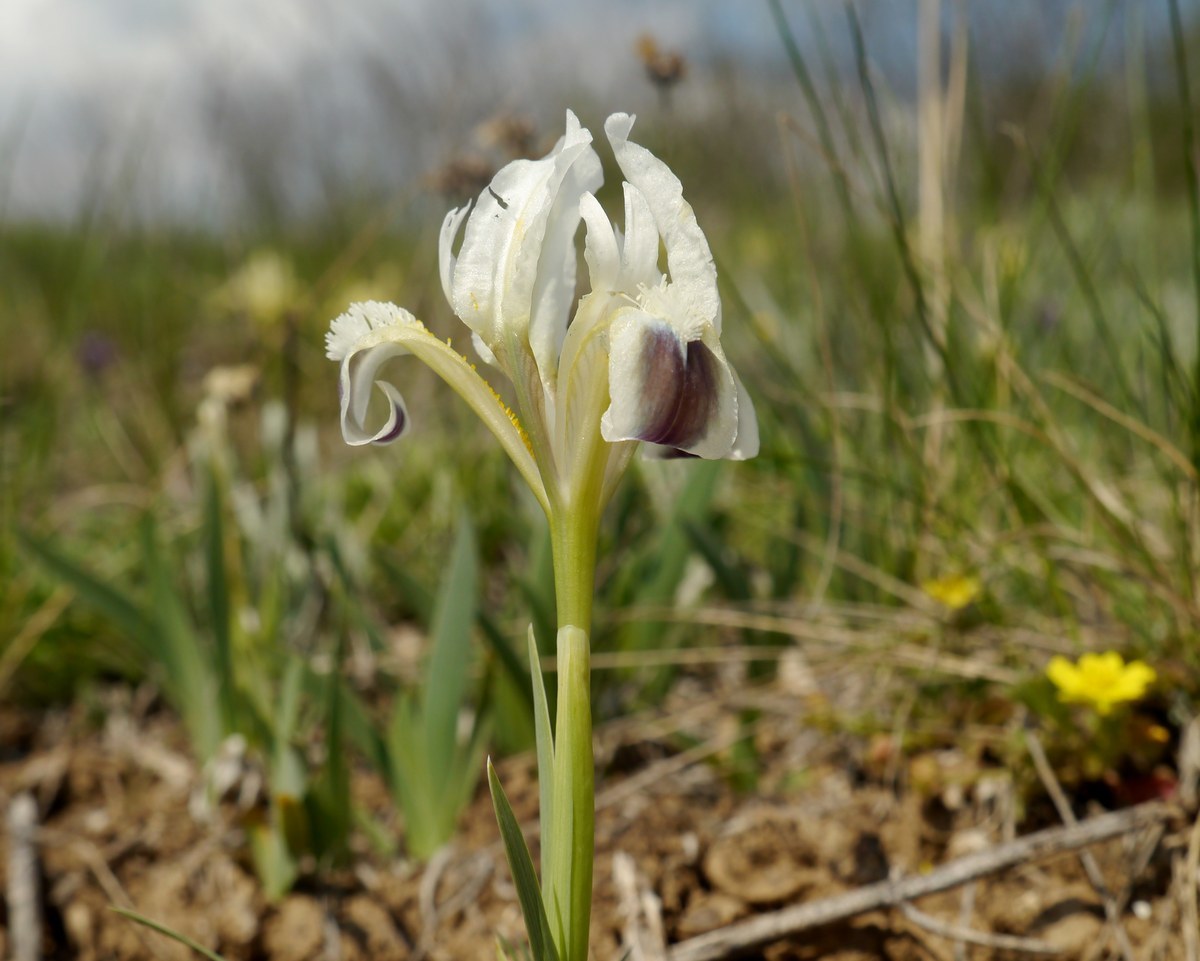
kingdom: Plantae
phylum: Tracheophyta
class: Liliopsida
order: Asparagales
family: Iridaceae
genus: Iris
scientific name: Iris pumila
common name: Dwarf iris
